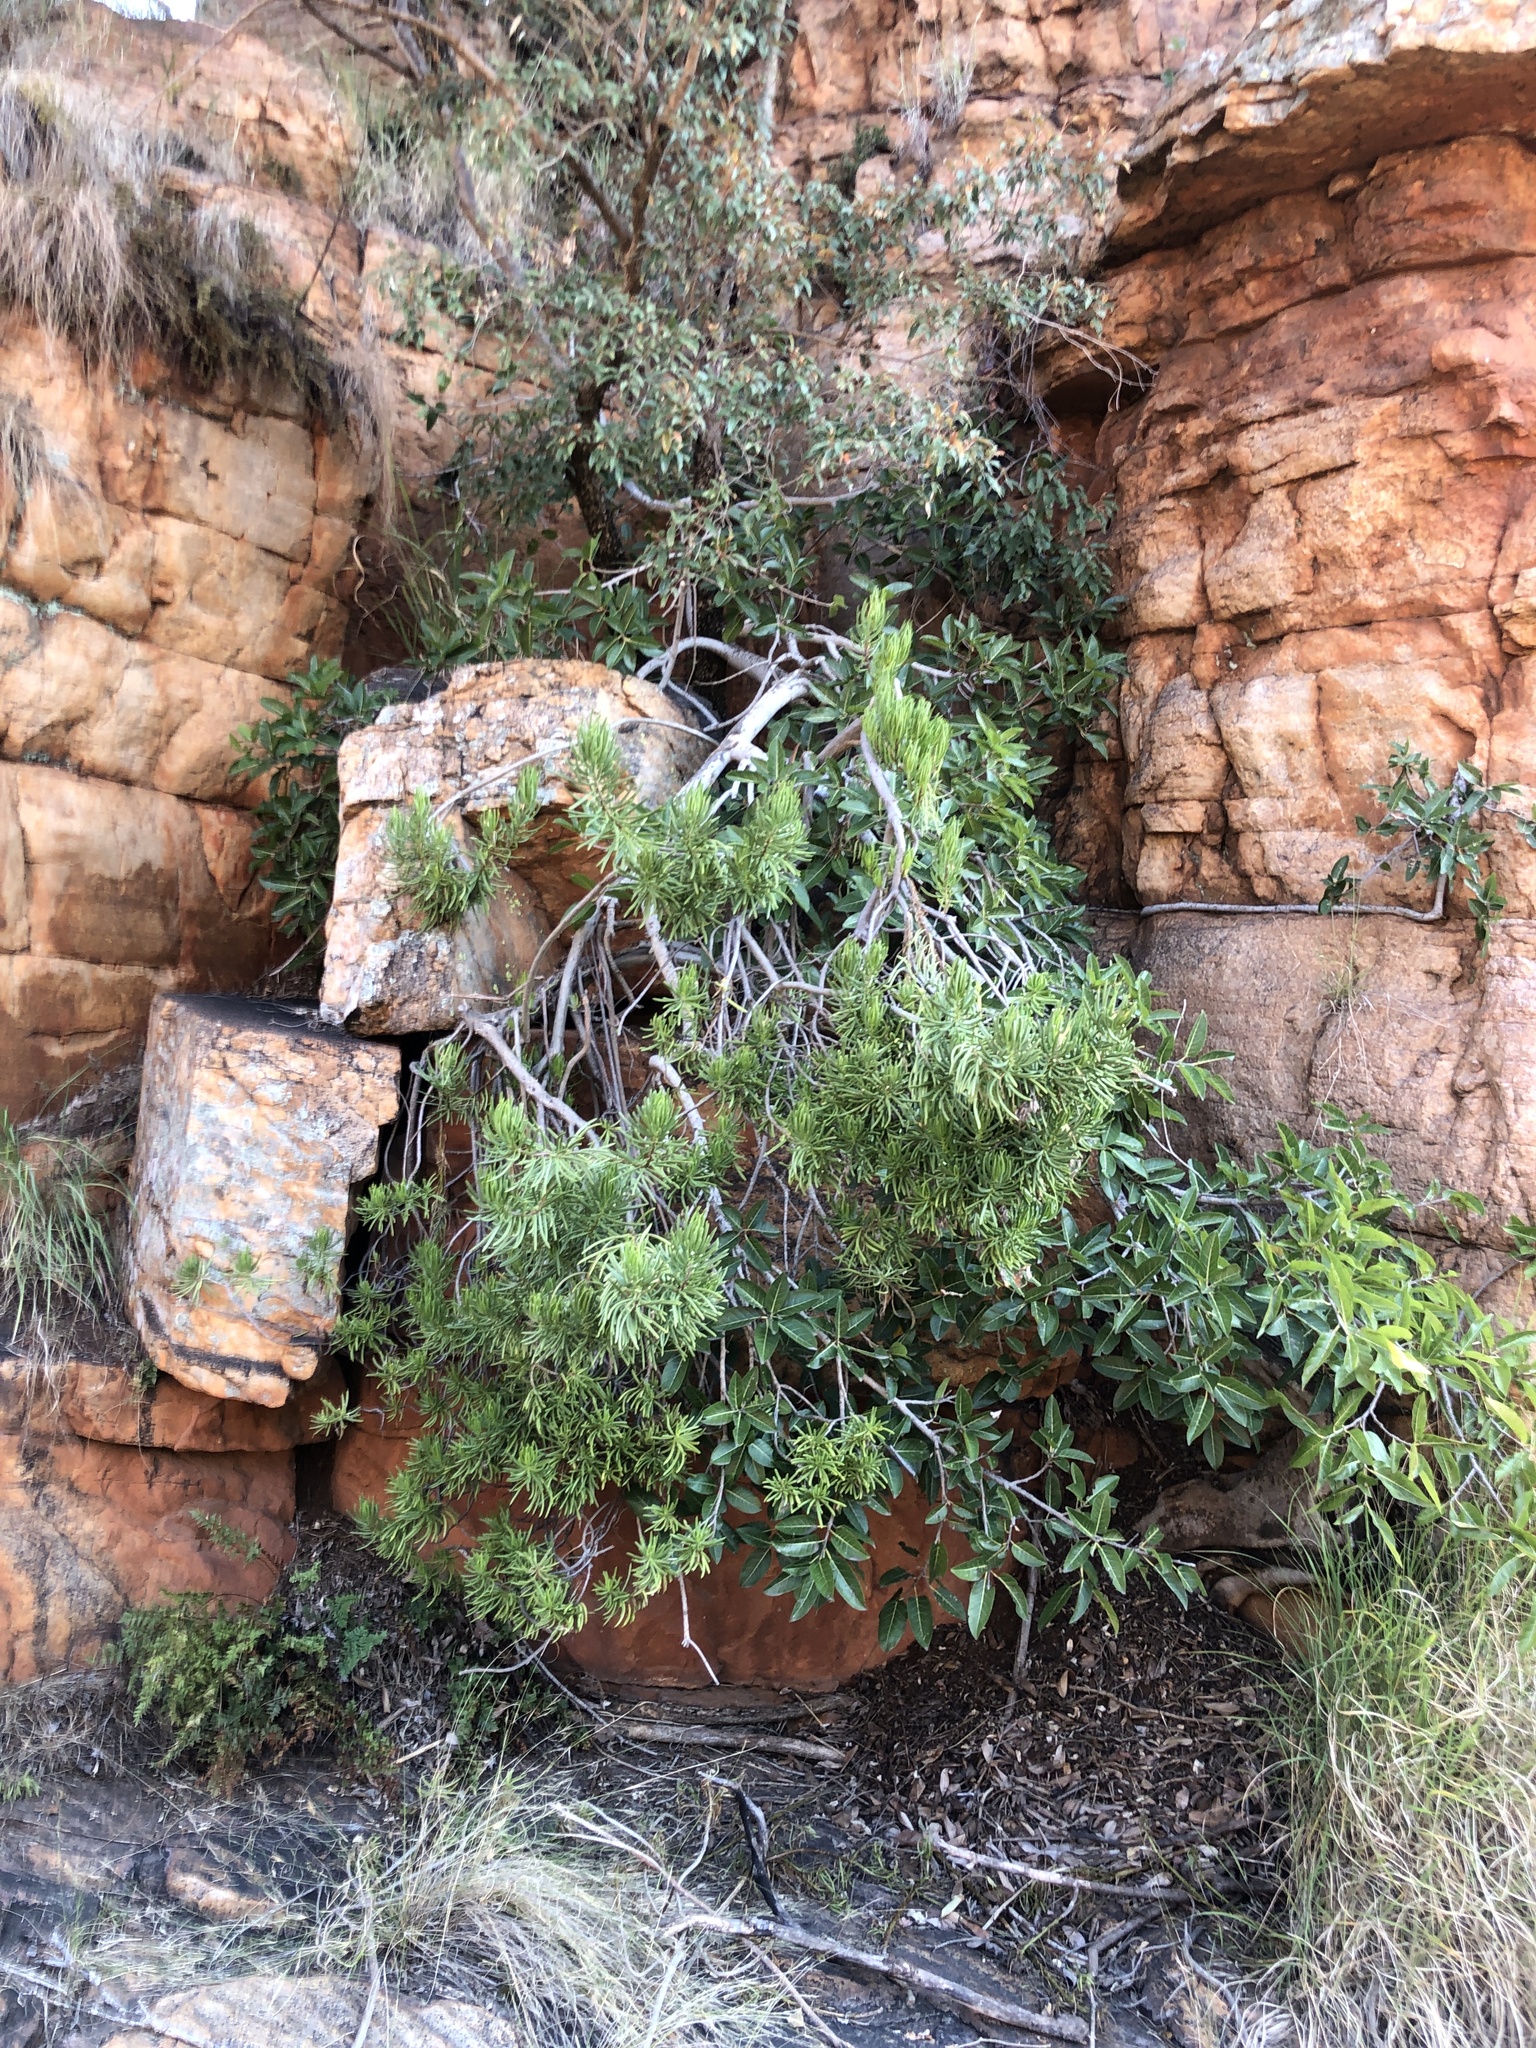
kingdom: Plantae
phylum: Tracheophyta
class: Magnoliopsida
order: Asterales
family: Asteraceae
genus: Kleinia
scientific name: Kleinia barbertonica
